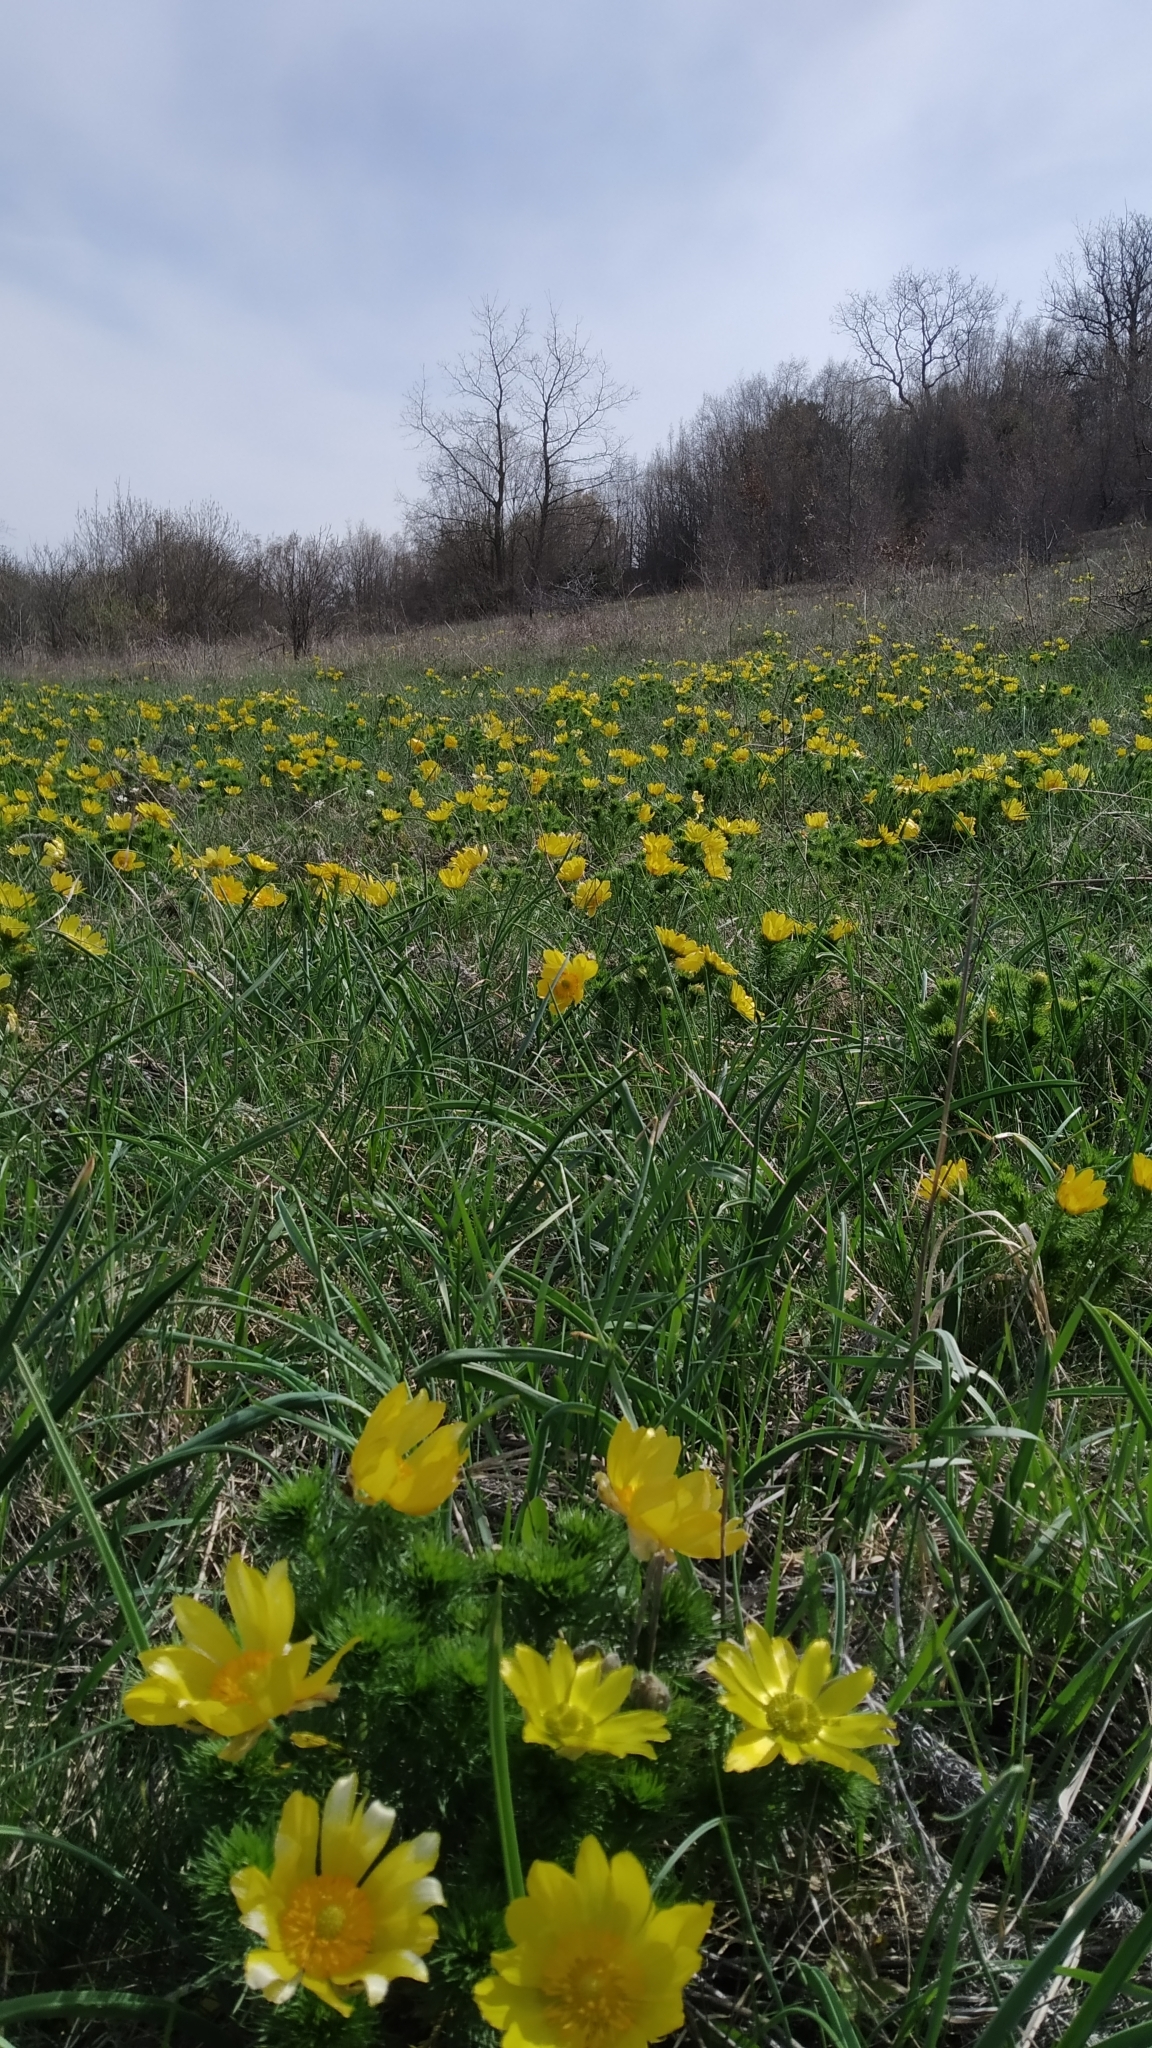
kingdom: Plantae
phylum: Tracheophyta
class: Magnoliopsida
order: Ranunculales
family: Ranunculaceae
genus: Adonis
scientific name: Adonis vernalis
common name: Yellow pheasants-eye
